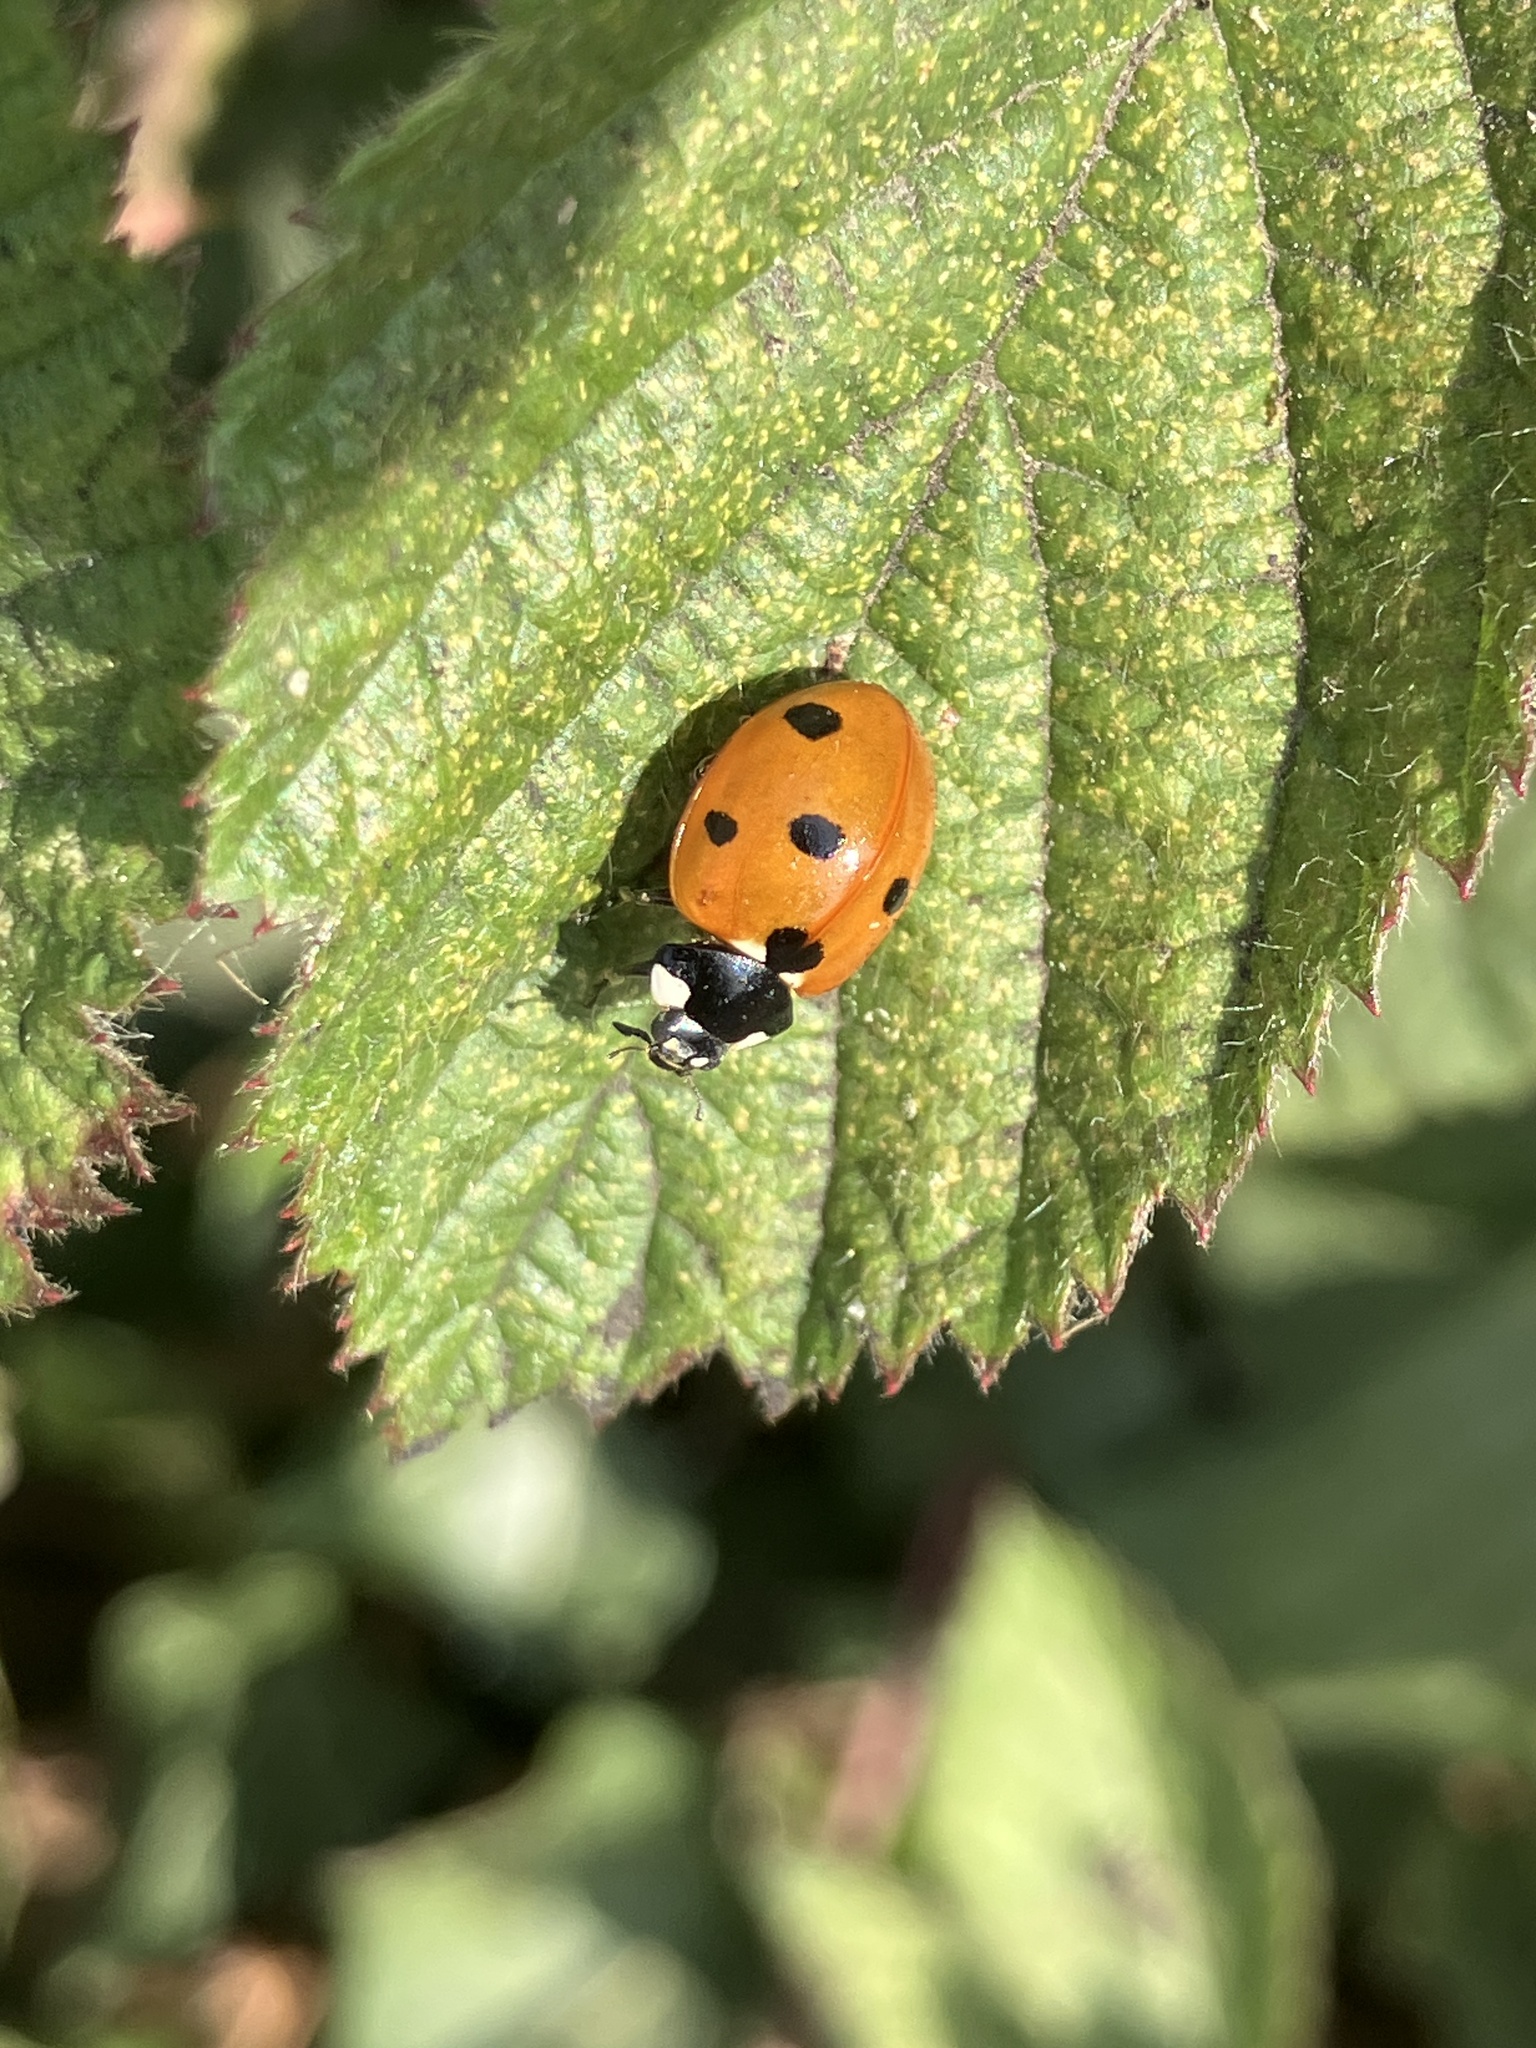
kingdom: Animalia
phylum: Arthropoda
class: Insecta
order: Coleoptera
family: Coccinellidae
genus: Coccinella
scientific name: Coccinella septempunctata
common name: Sevenspotted lady beetle
